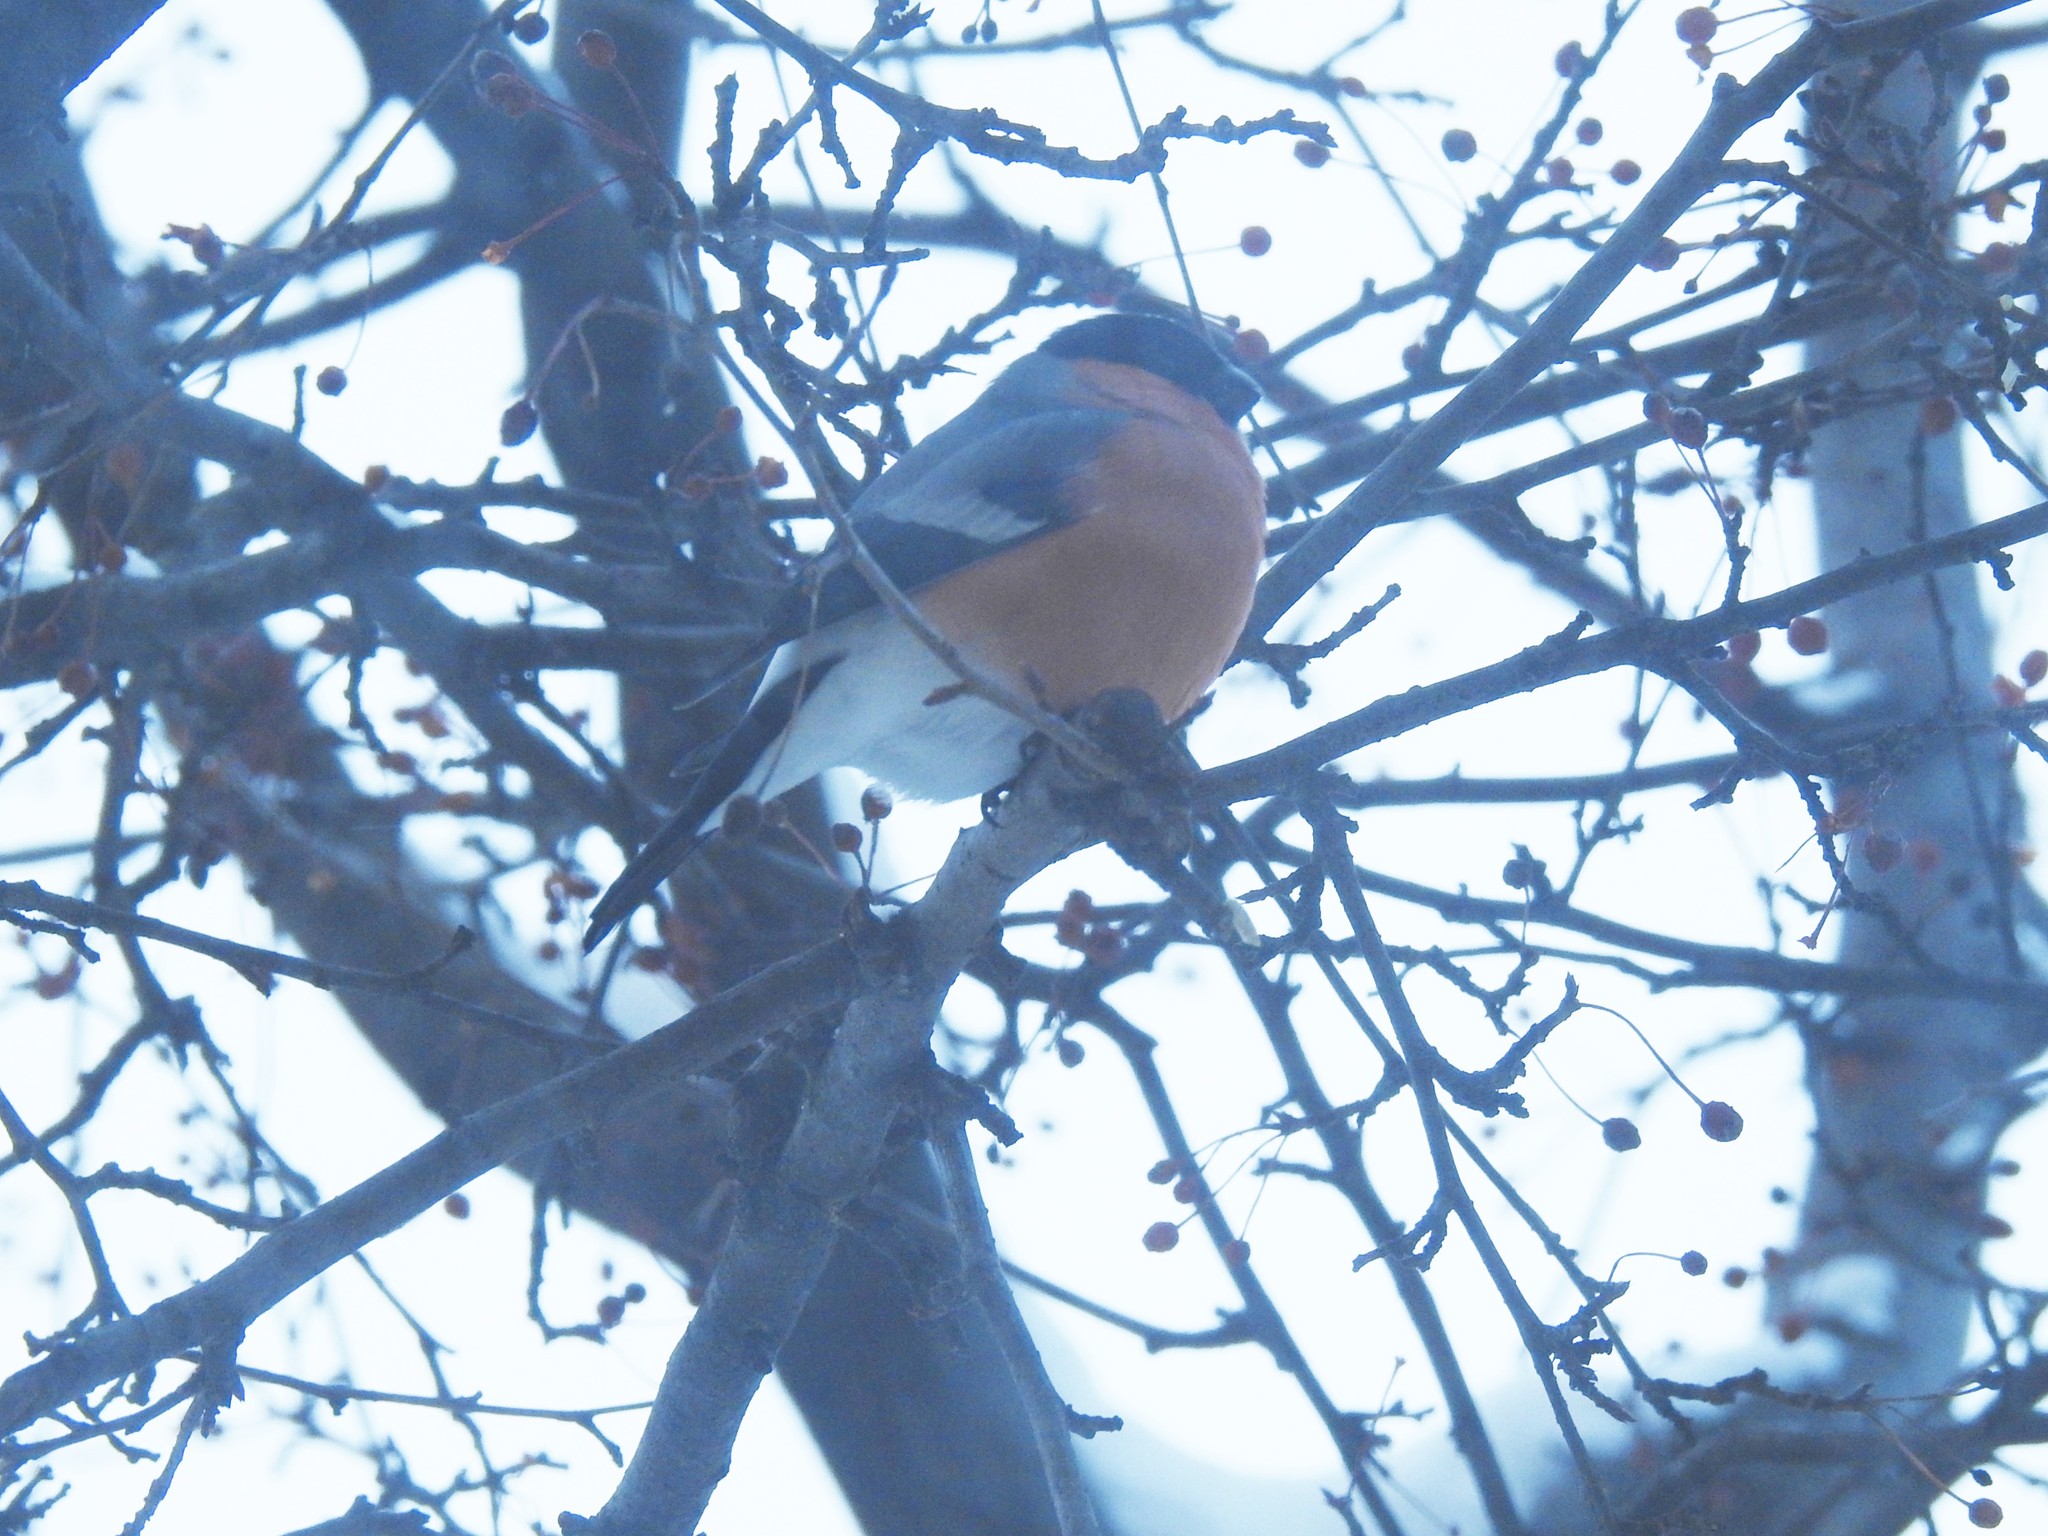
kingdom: Animalia
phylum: Chordata
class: Aves
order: Passeriformes
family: Fringillidae
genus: Pyrrhula
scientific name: Pyrrhula pyrrhula
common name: Eurasian bullfinch
